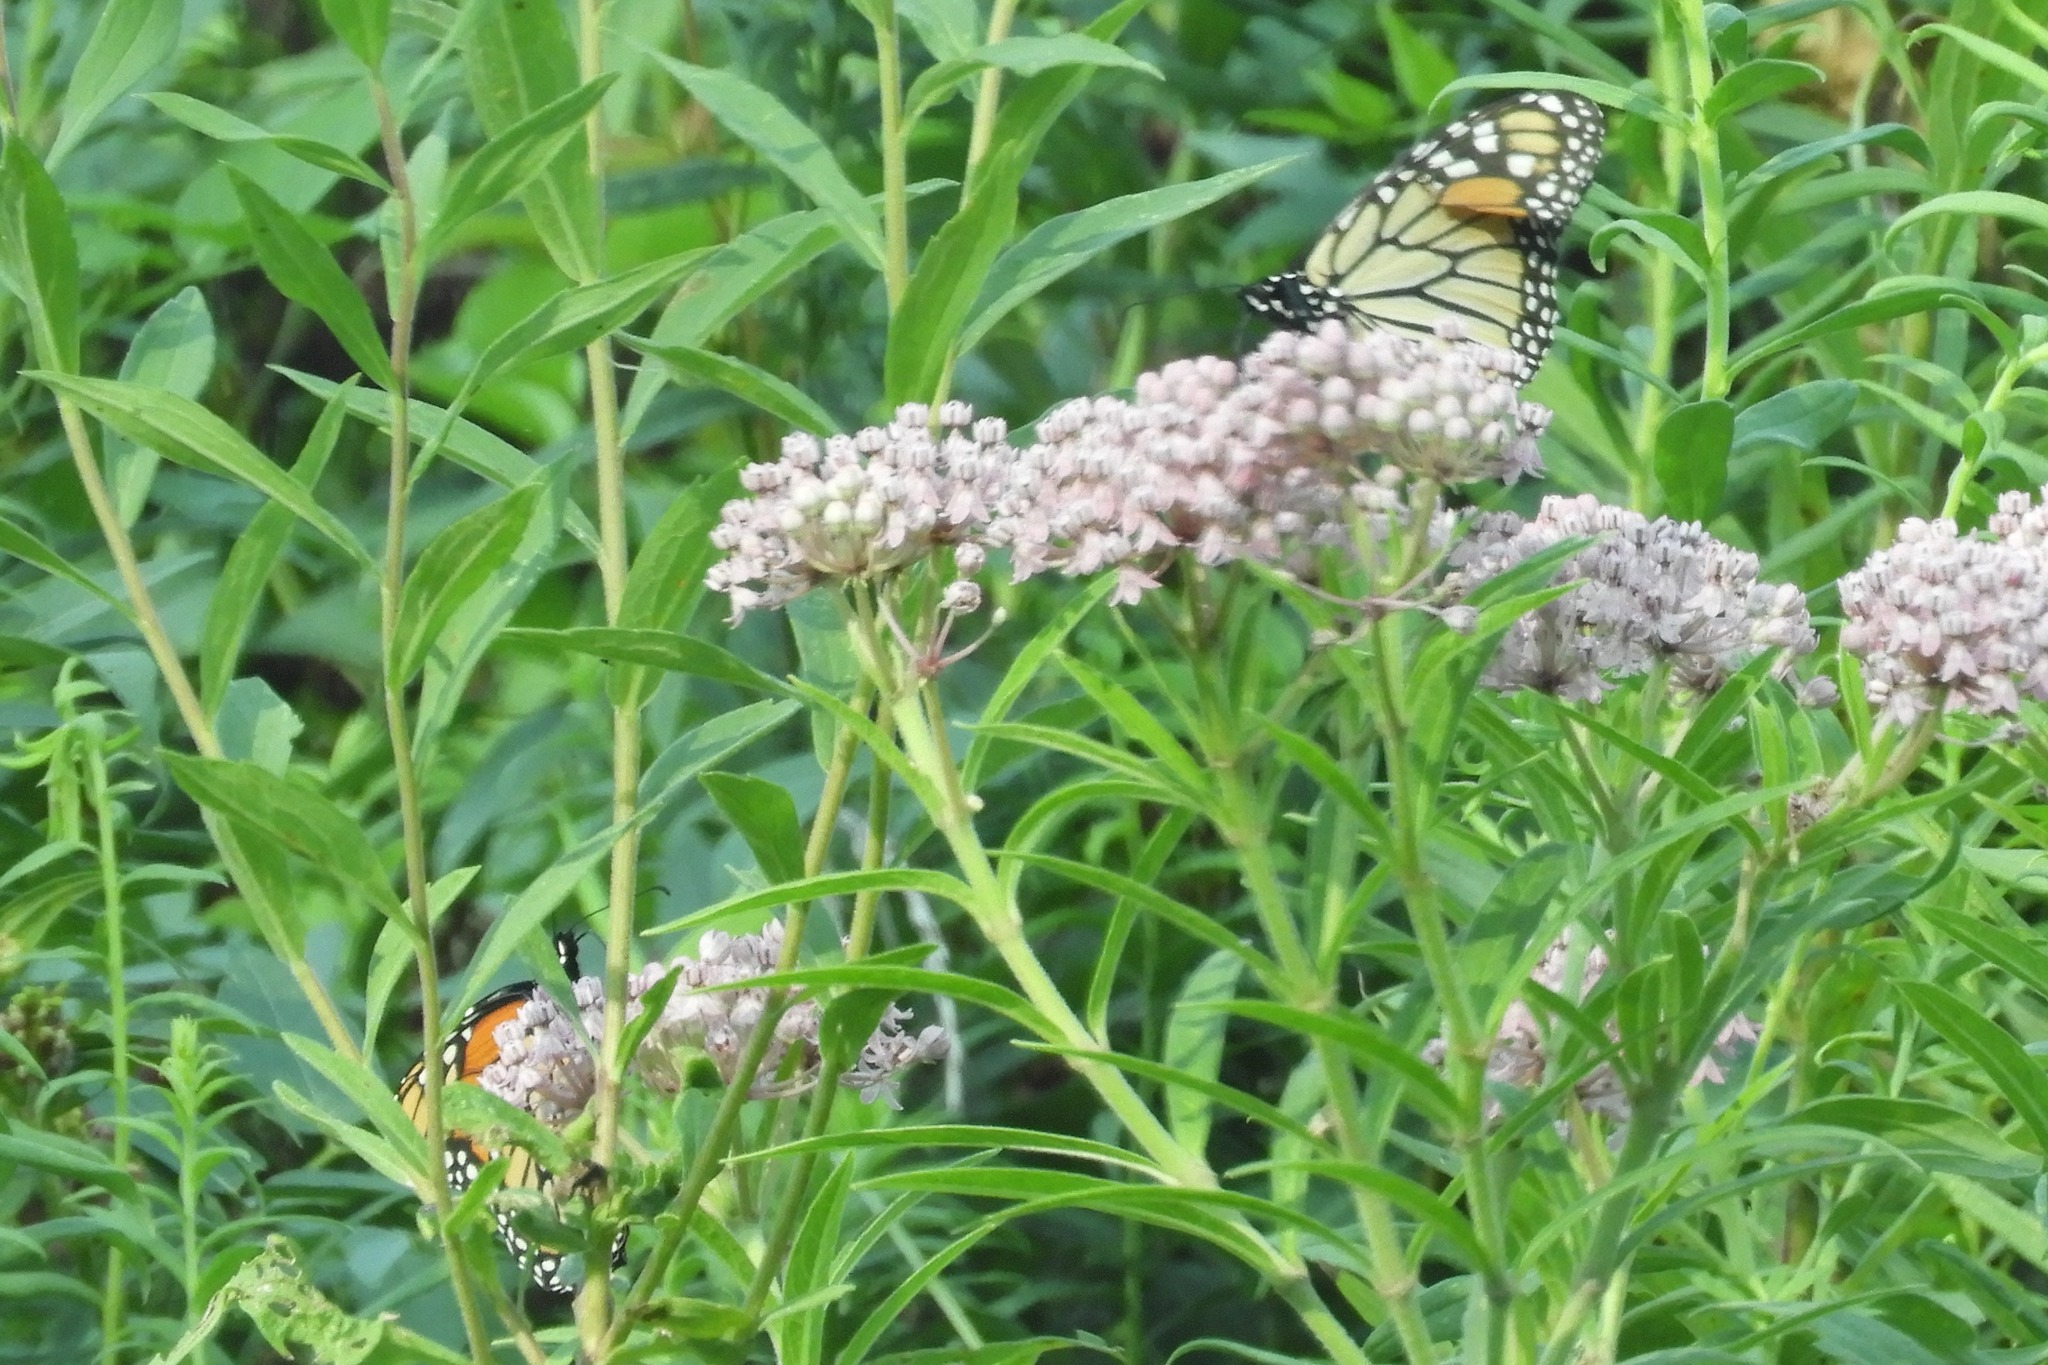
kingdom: Animalia
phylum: Arthropoda
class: Insecta
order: Lepidoptera
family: Nymphalidae
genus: Danaus
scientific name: Danaus plexippus
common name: Monarch
